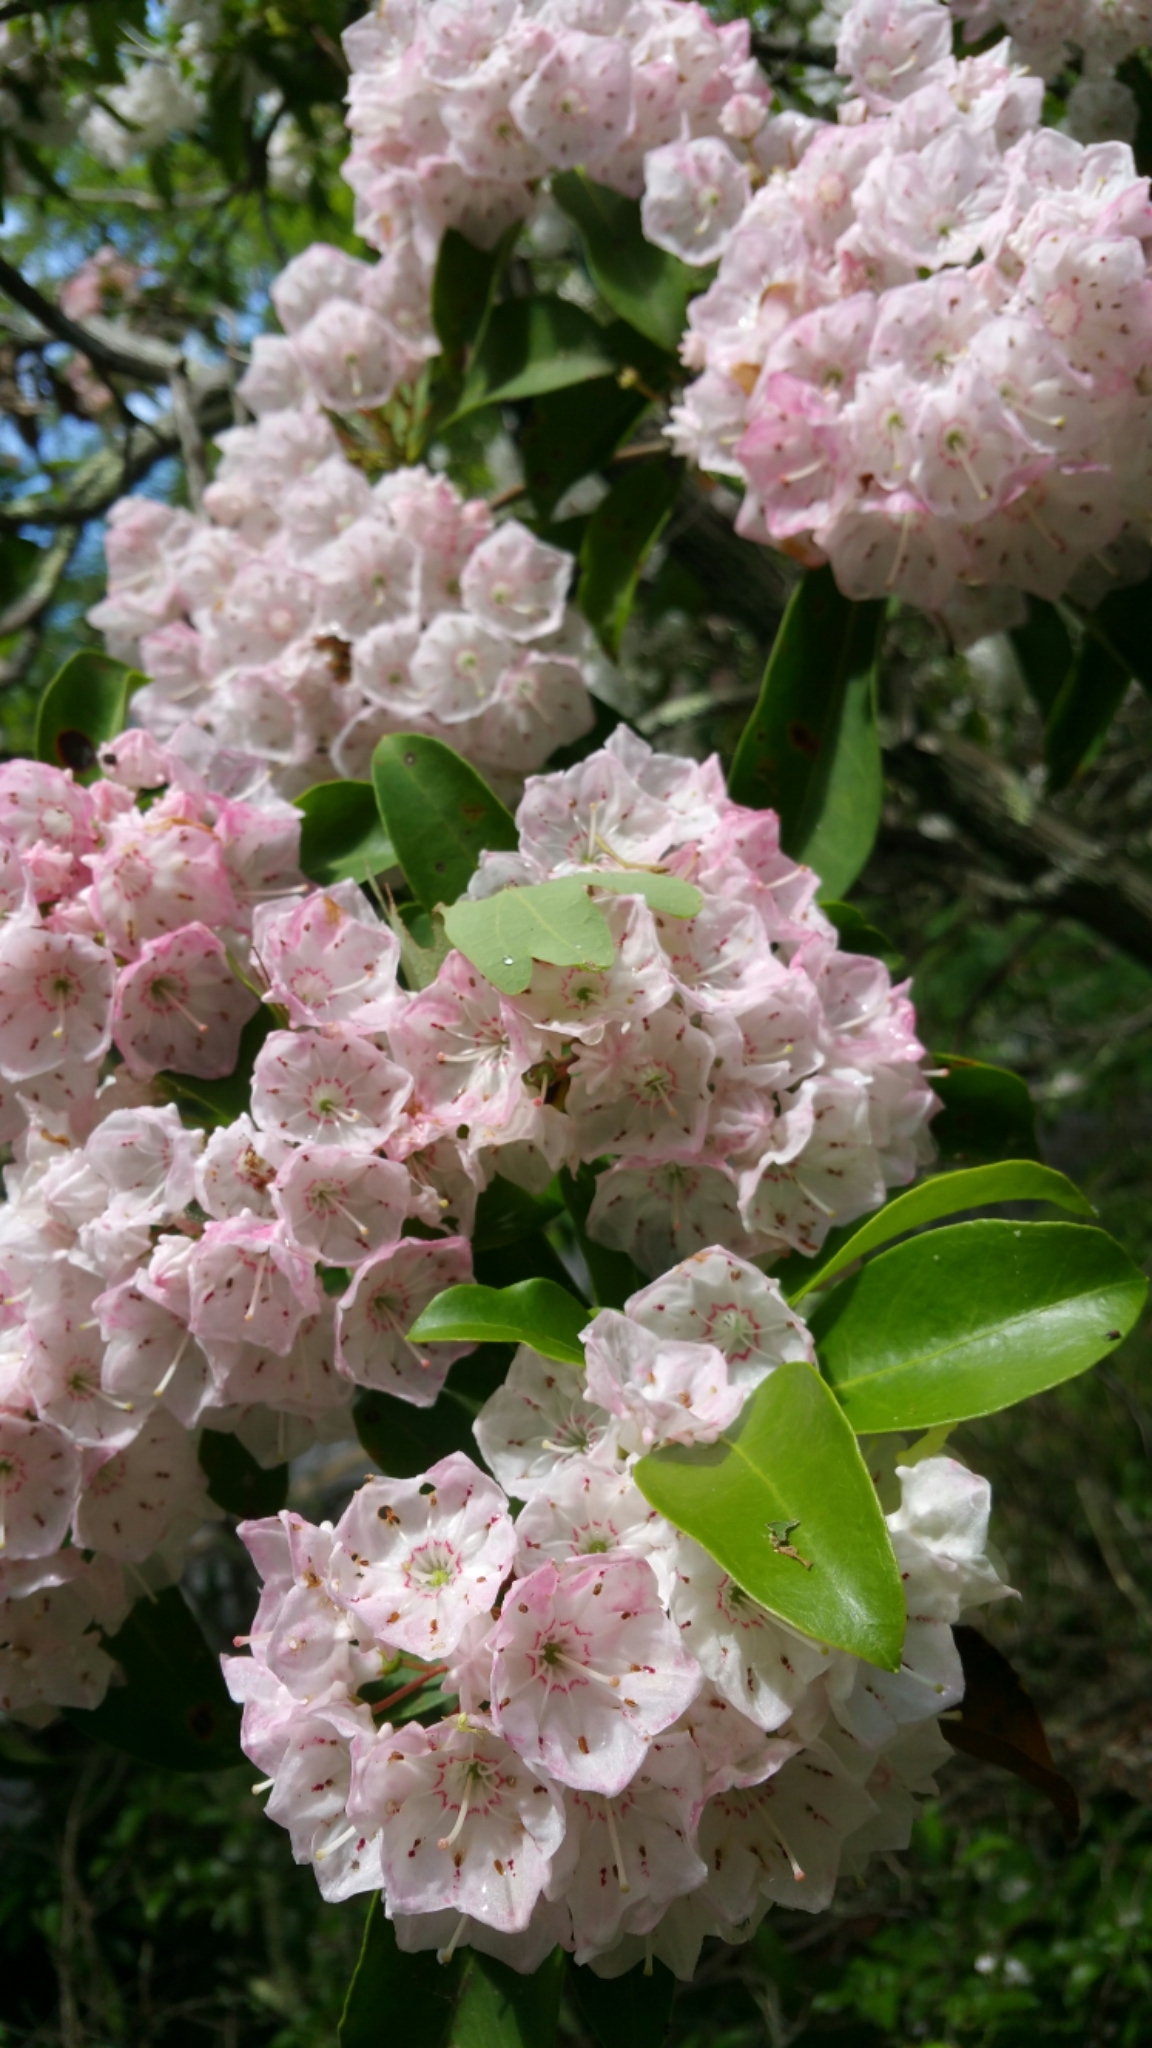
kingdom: Plantae
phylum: Tracheophyta
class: Magnoliopsida
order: Ericales
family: Ericaceae
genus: Kalmia
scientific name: Kalmia latifolia
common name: Mountain-laurel
